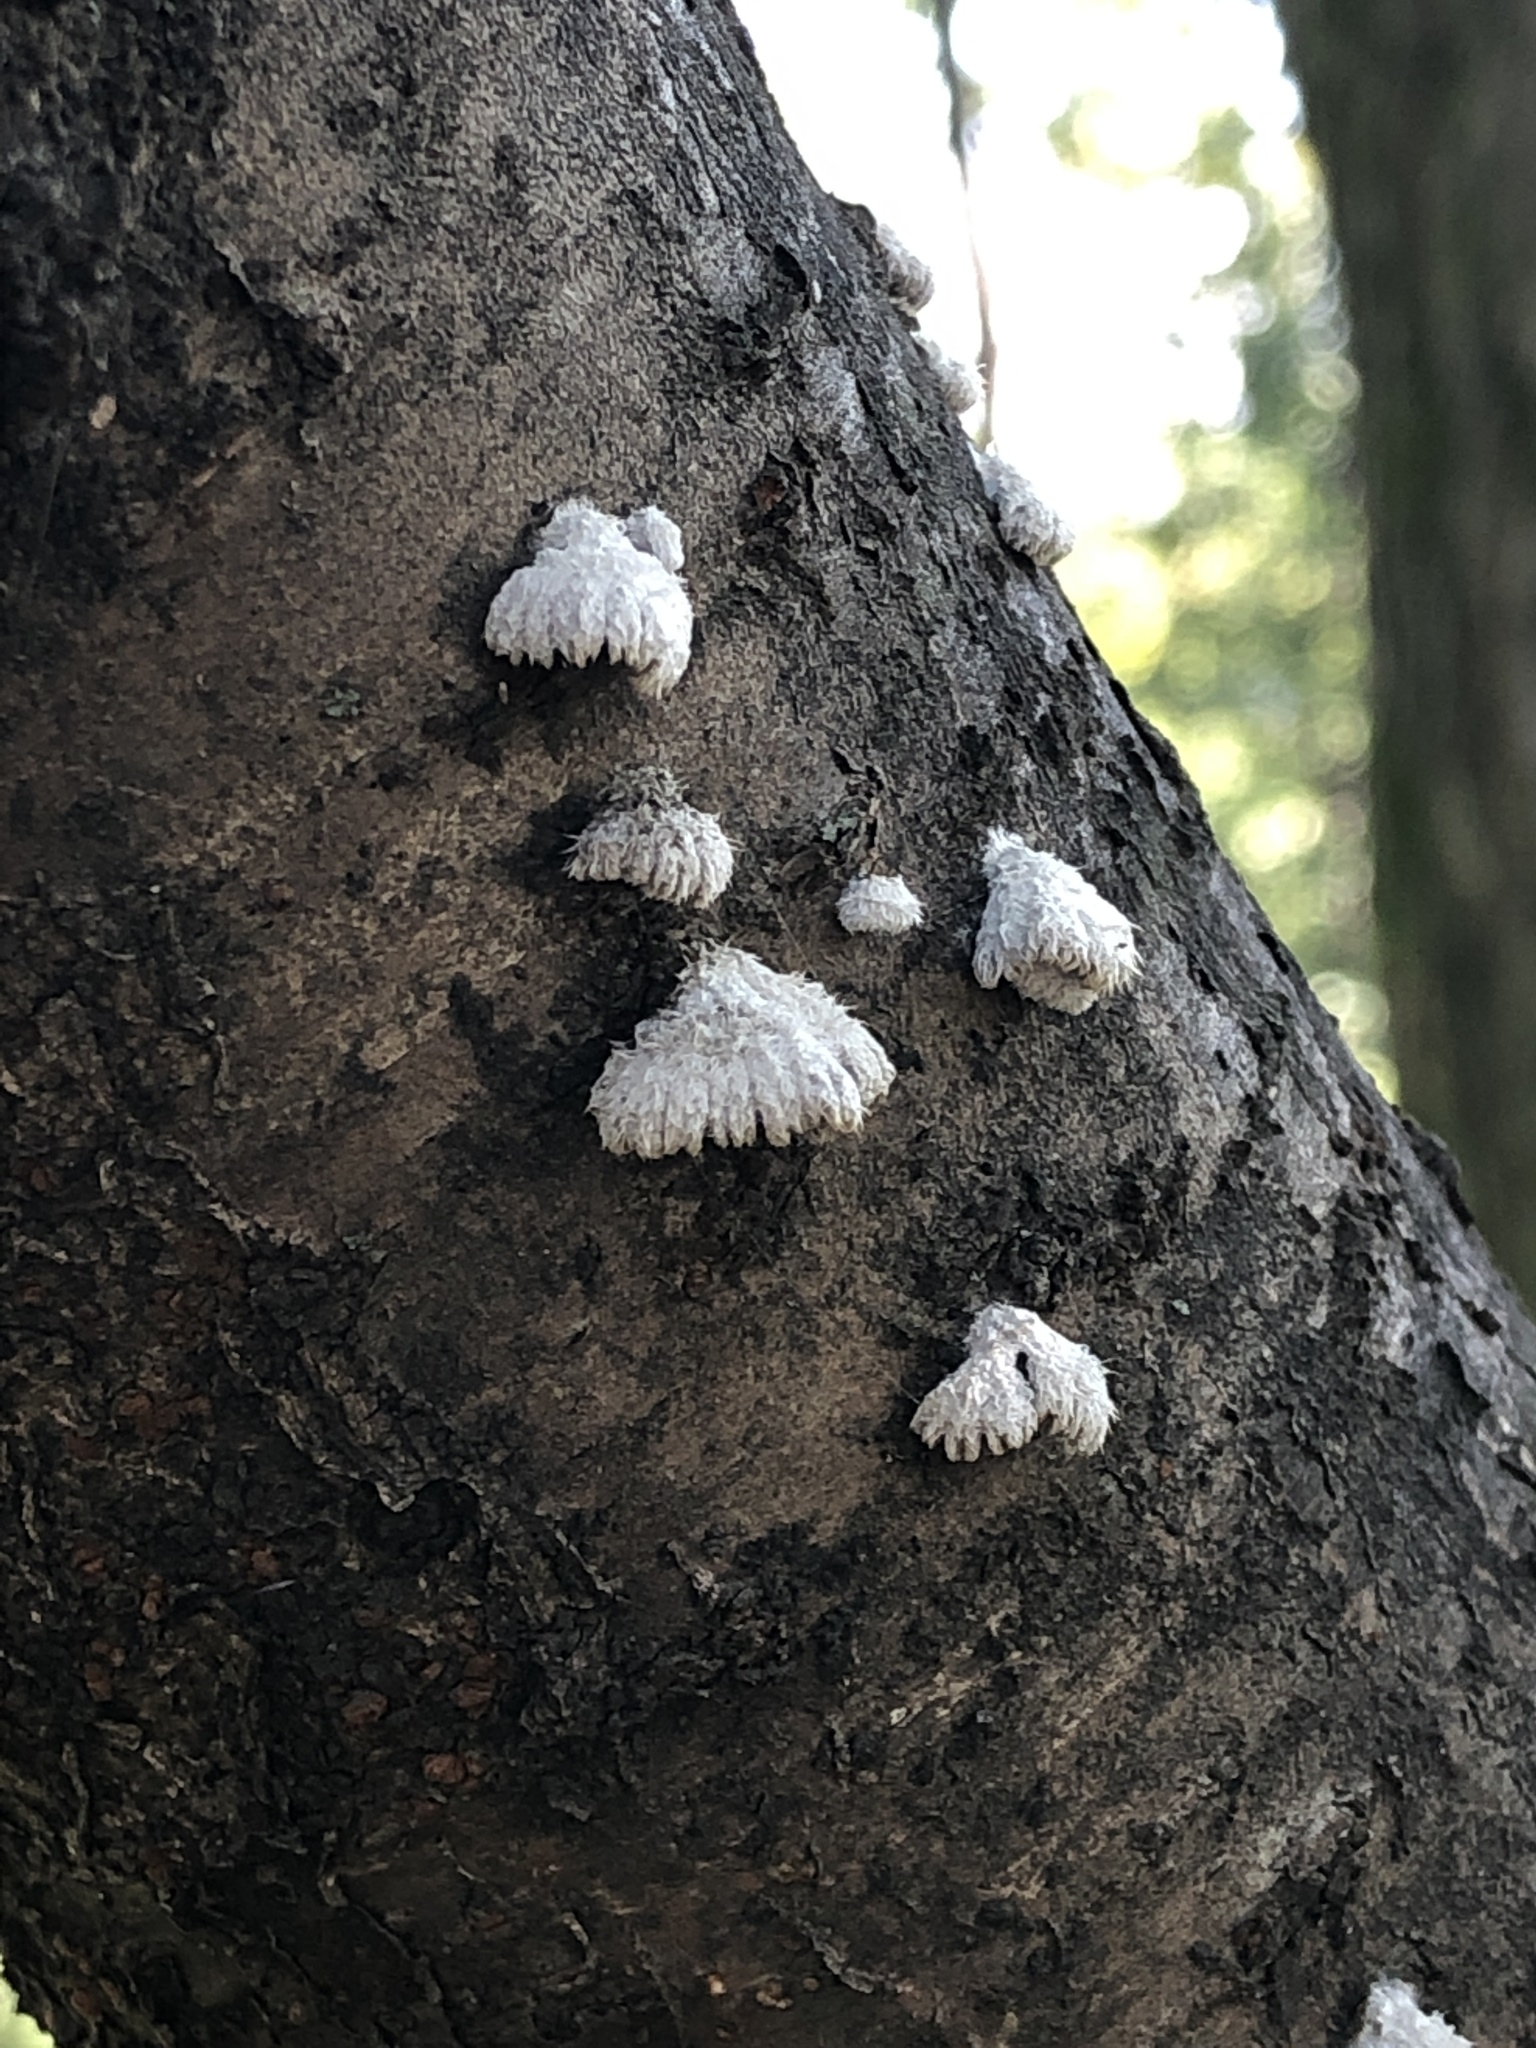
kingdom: Fungi
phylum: Basidiomycota
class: Agaricomycetes
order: Agaricales
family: Schizophyllaceae
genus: Schizophyllum
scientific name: Schizophyllum commune
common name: Common porecrust
